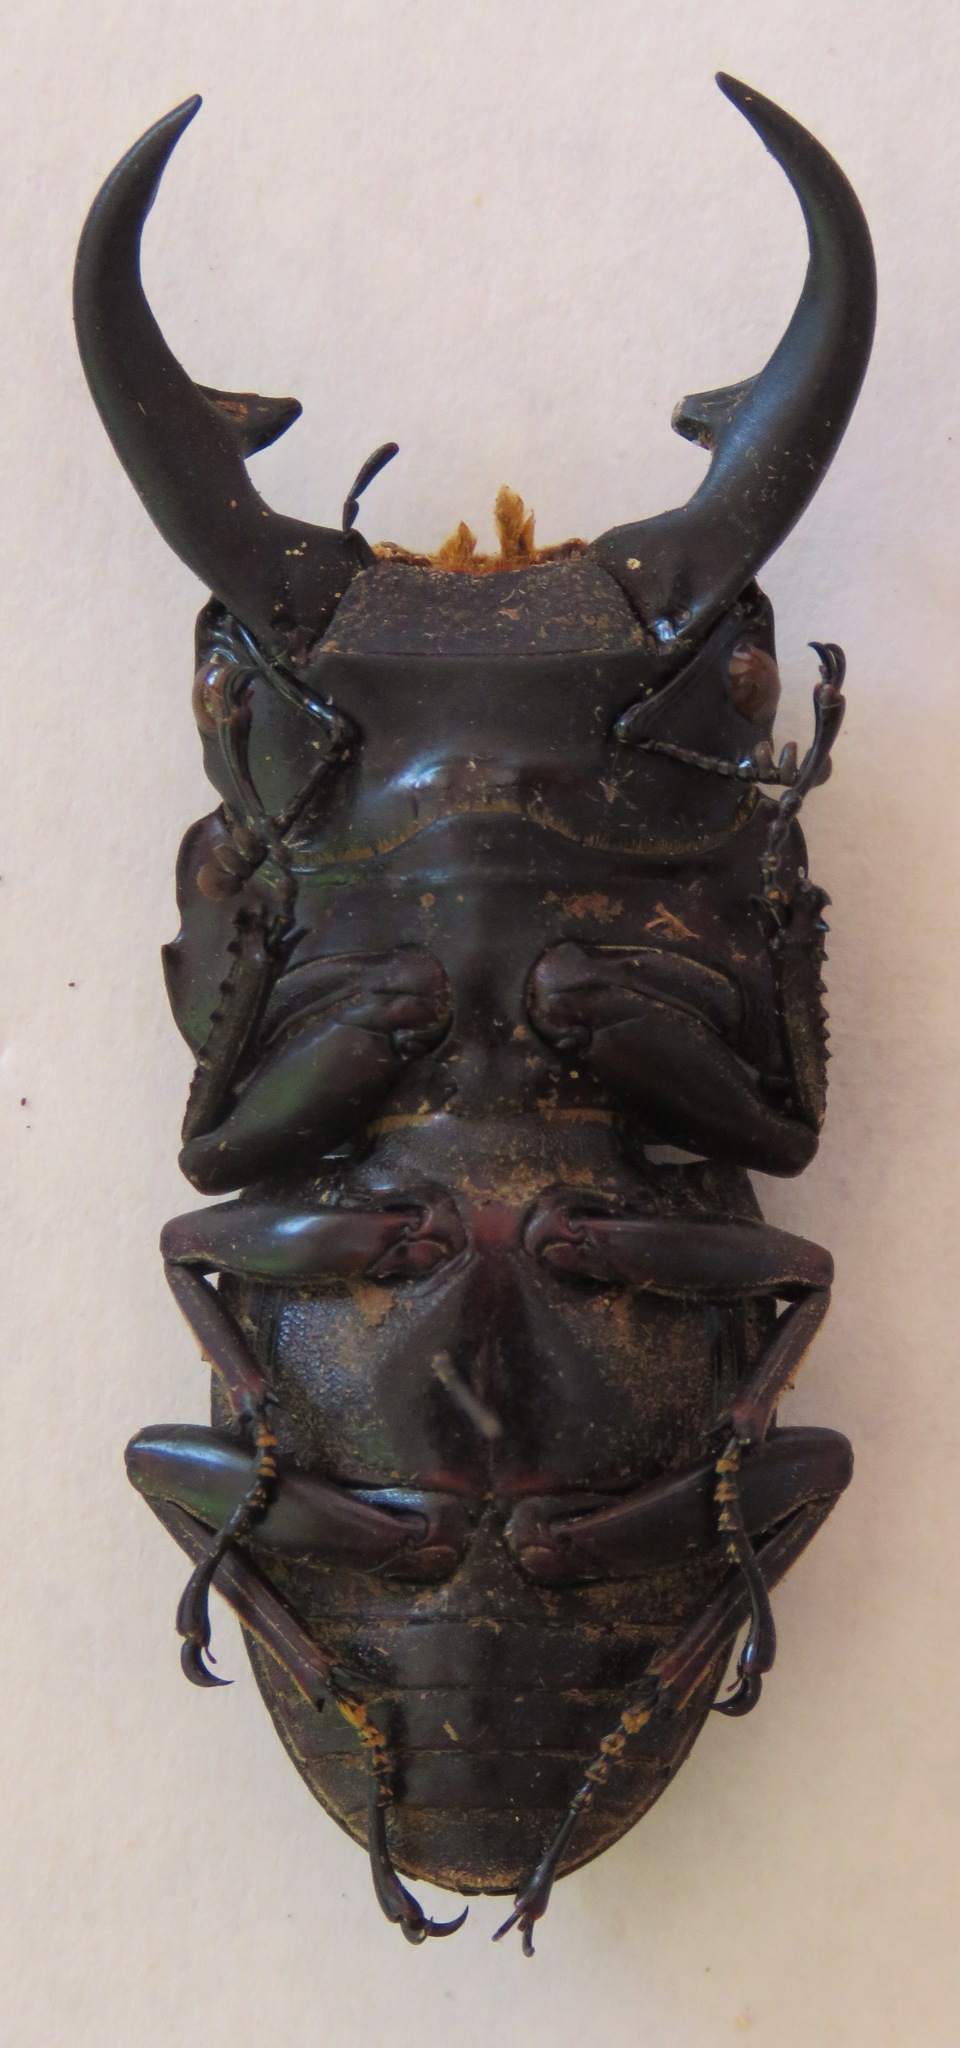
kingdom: Animalia
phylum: Arthropoda
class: Insecta
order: Coleoptera
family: Lucanidae
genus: Dorcus
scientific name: Dorcus ritsemae
